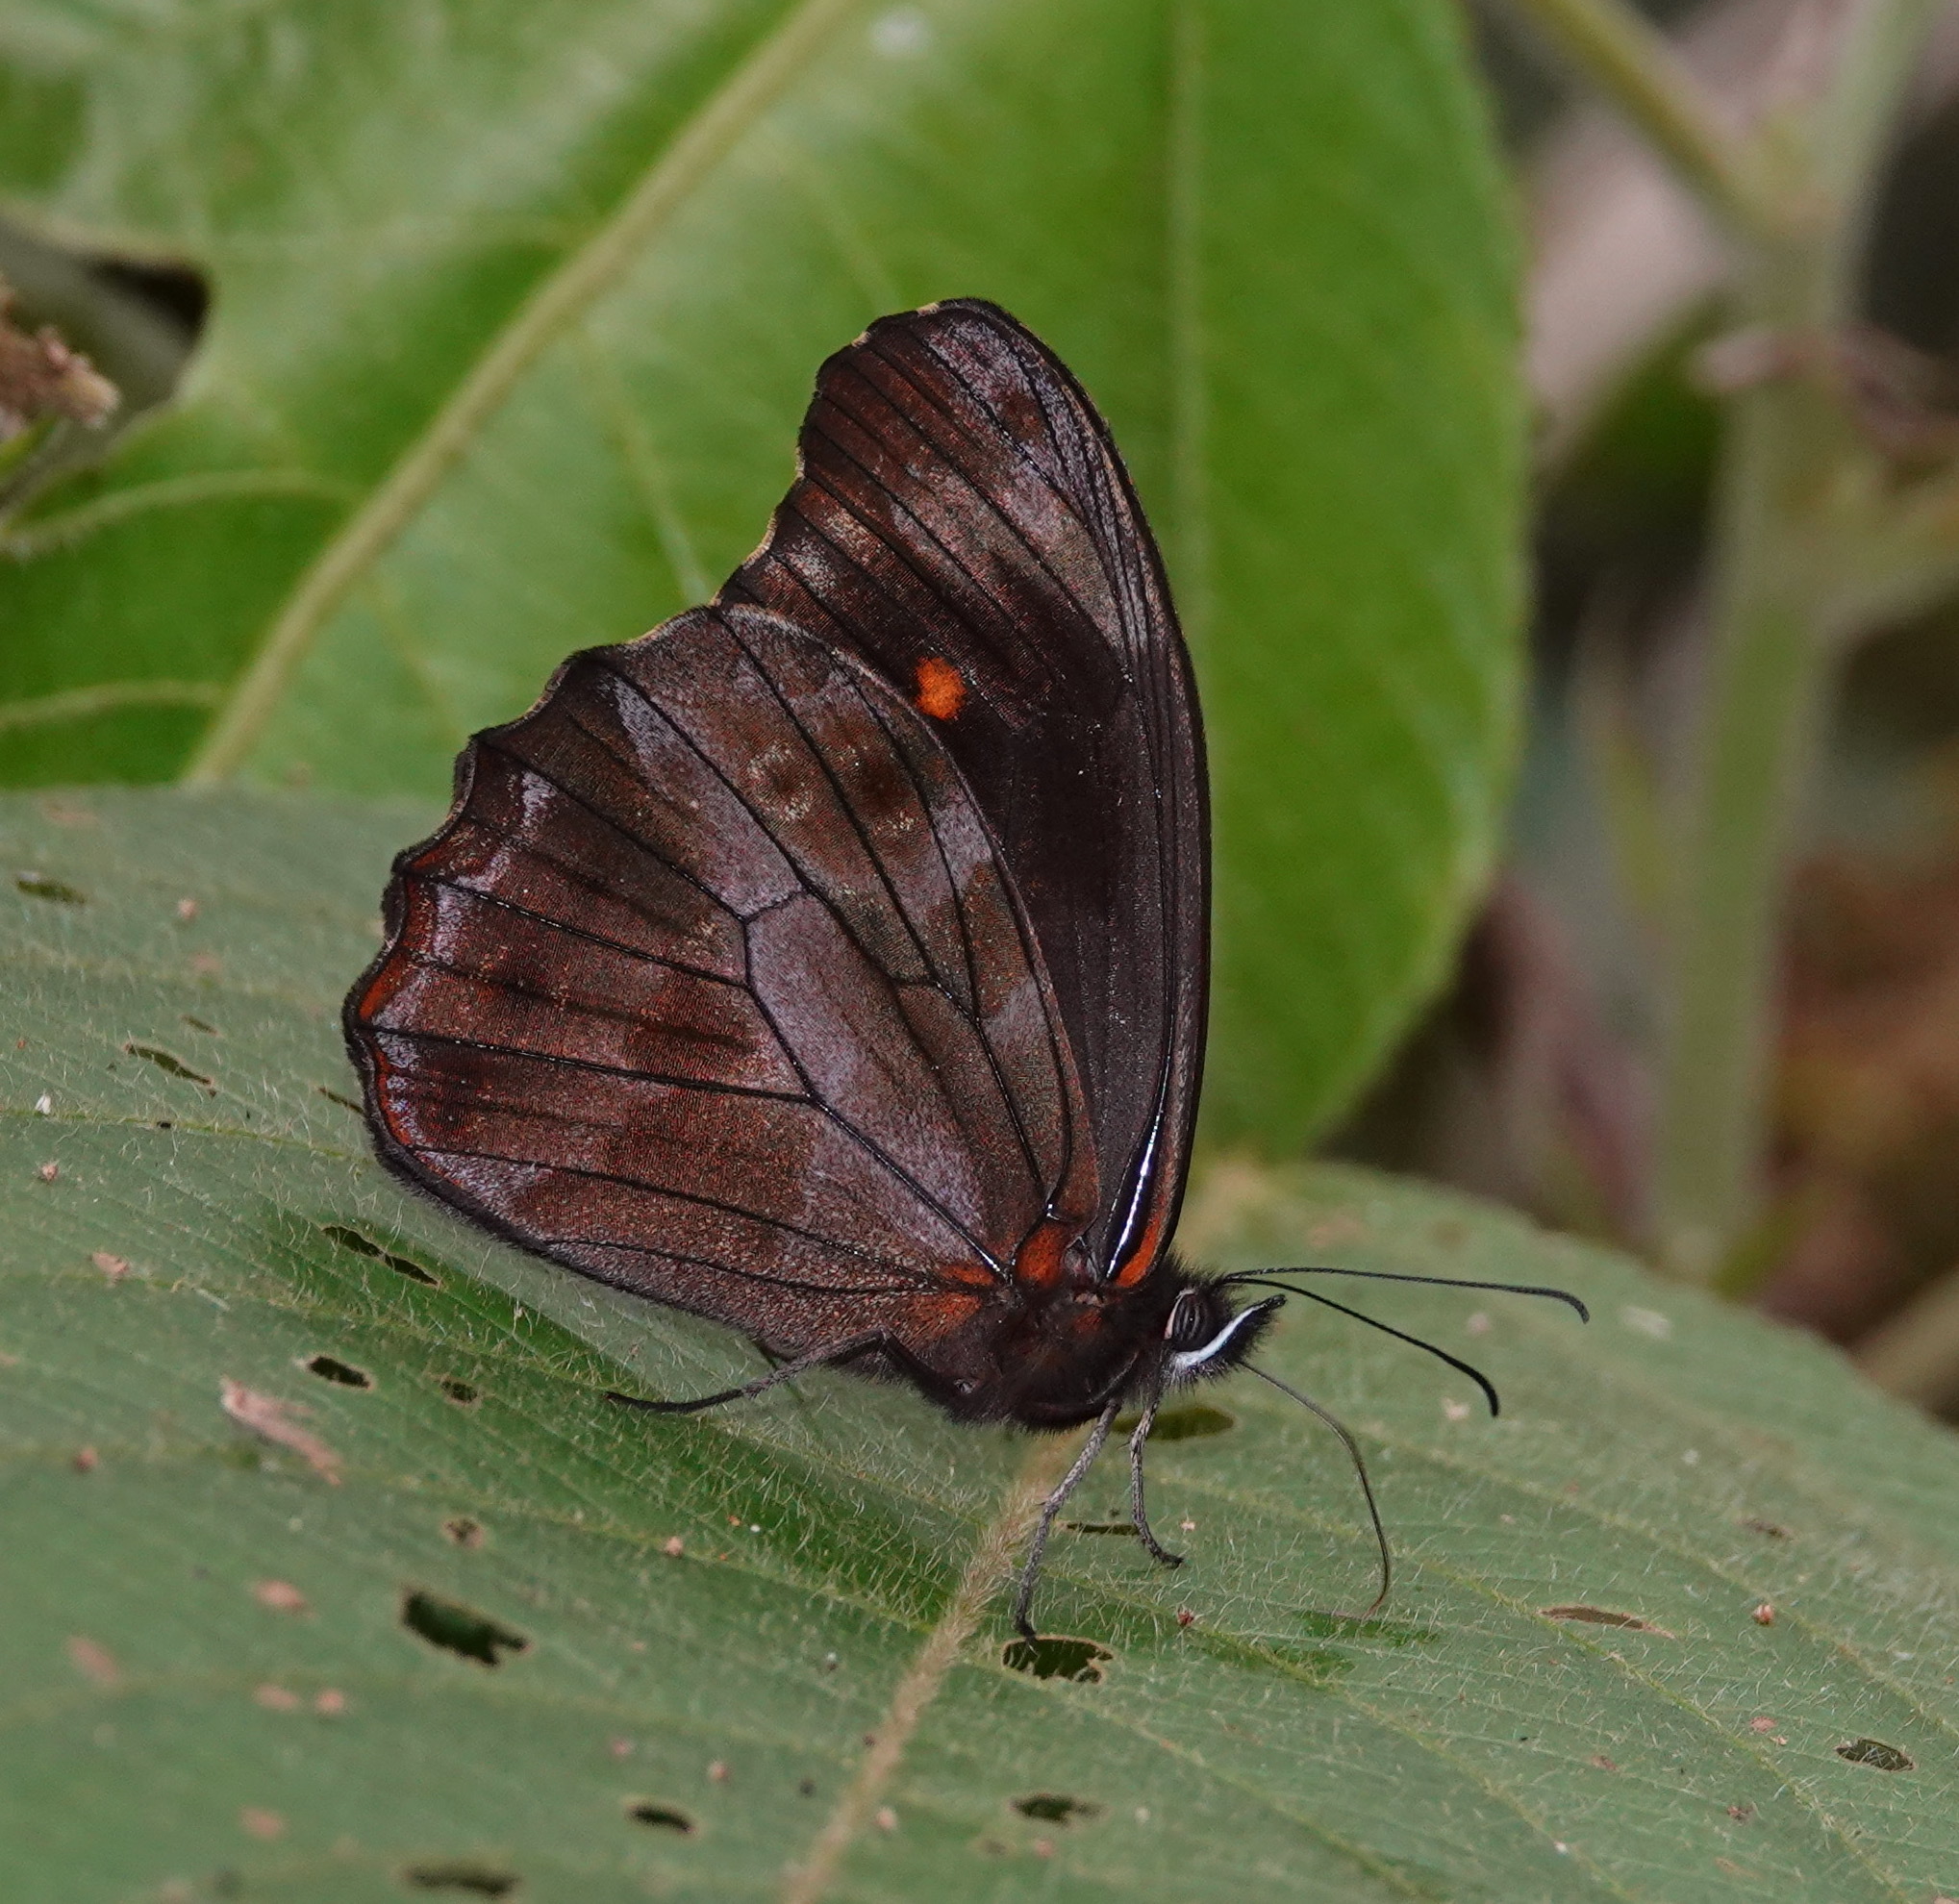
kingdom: Animalia
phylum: Arthropoda
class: Insecta
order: Lepidoptera
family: Nymphalidae
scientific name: Nymphalidae
